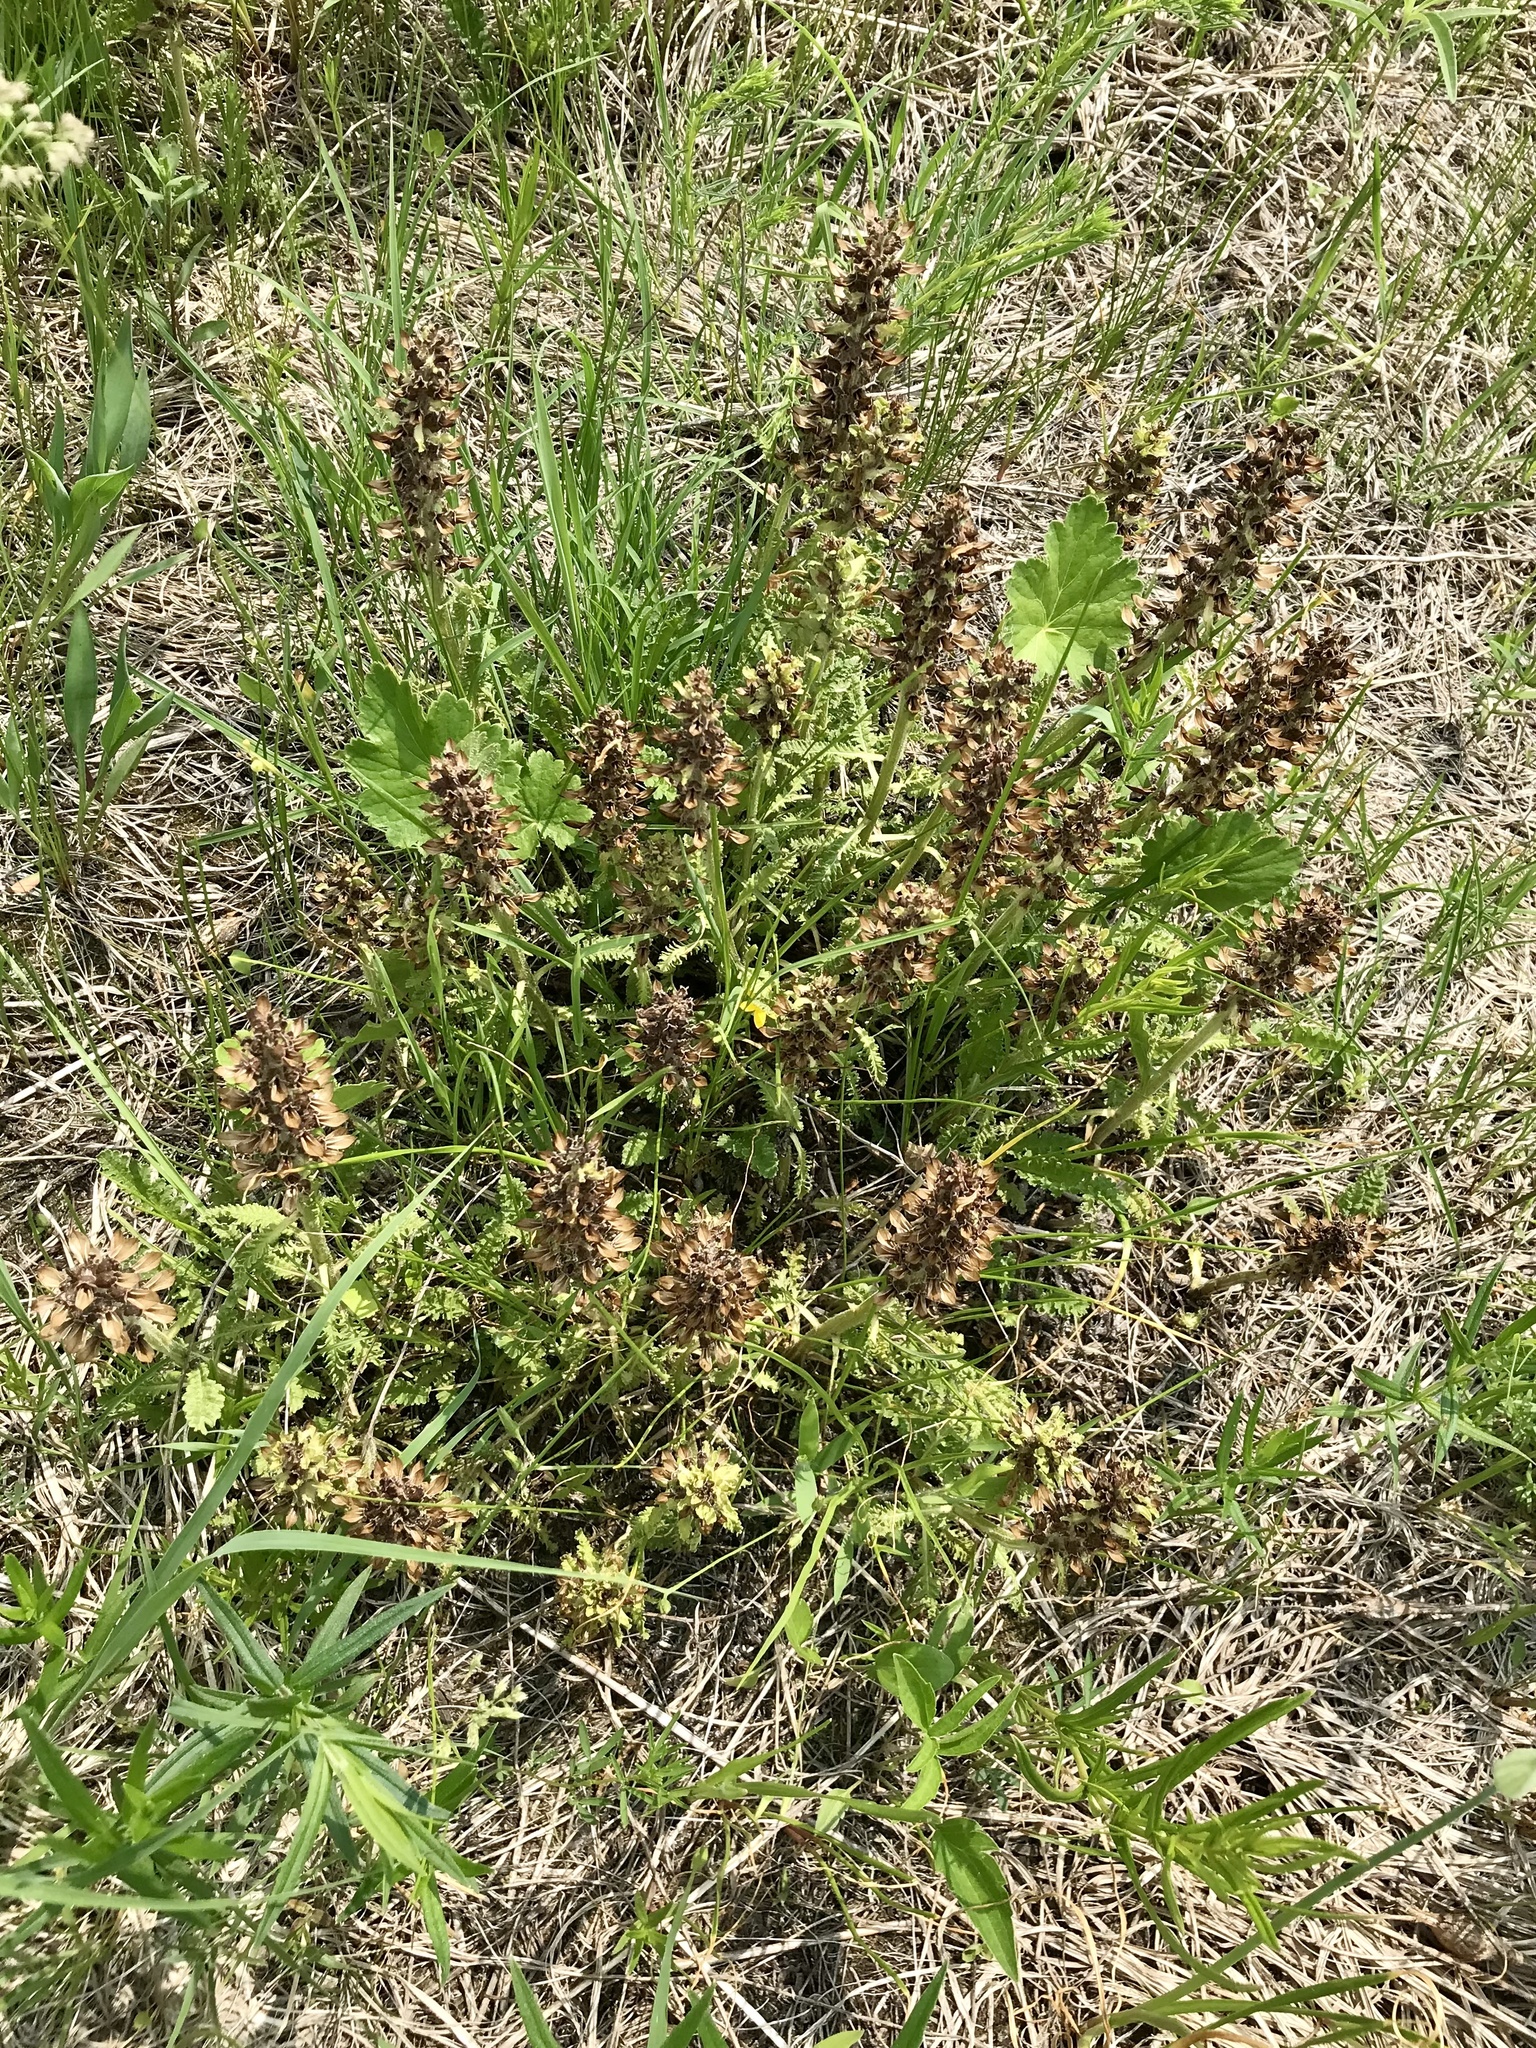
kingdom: Plantae
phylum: Tracheophyta
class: Magnoliopsida
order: Lamiales
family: Orobanchaceae
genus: Pedicularis
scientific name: Pedicularis canadensis
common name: Early lousewort
